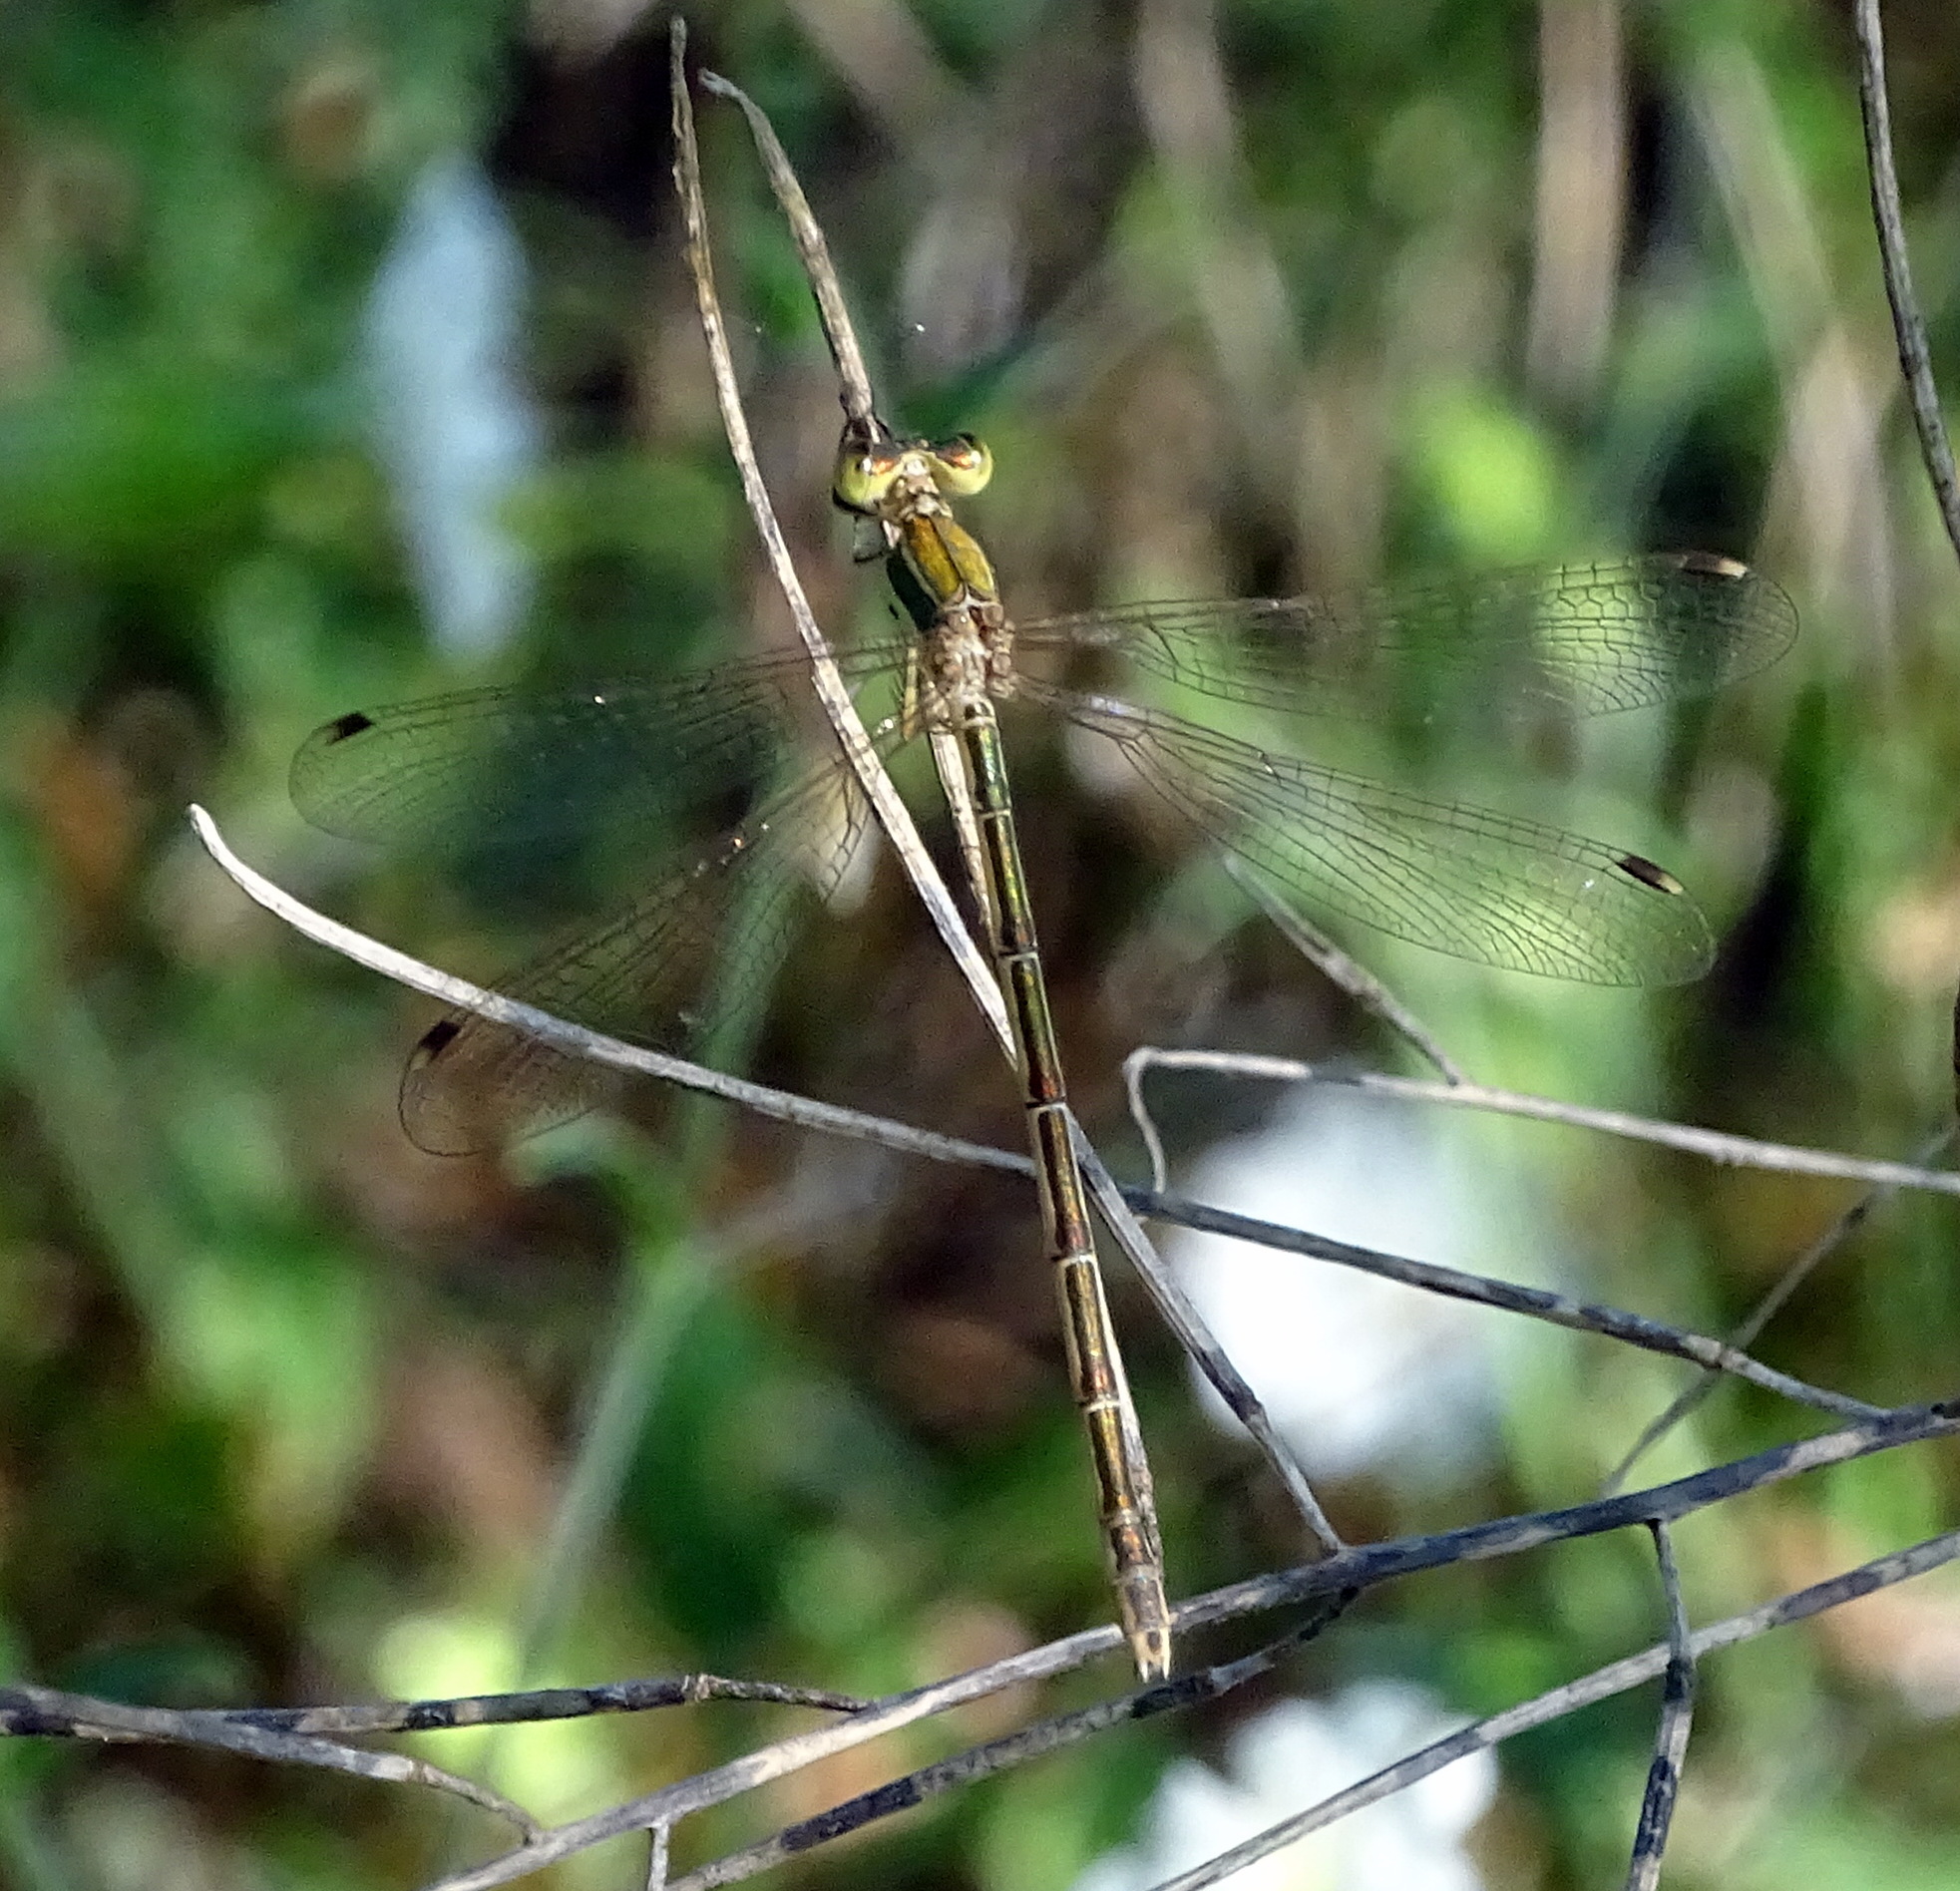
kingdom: Animalia
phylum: Arthropoda
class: Insecta
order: Odonata
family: Lestidae
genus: Lestes
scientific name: Lestes barbarus
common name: Migrant spreadwing
